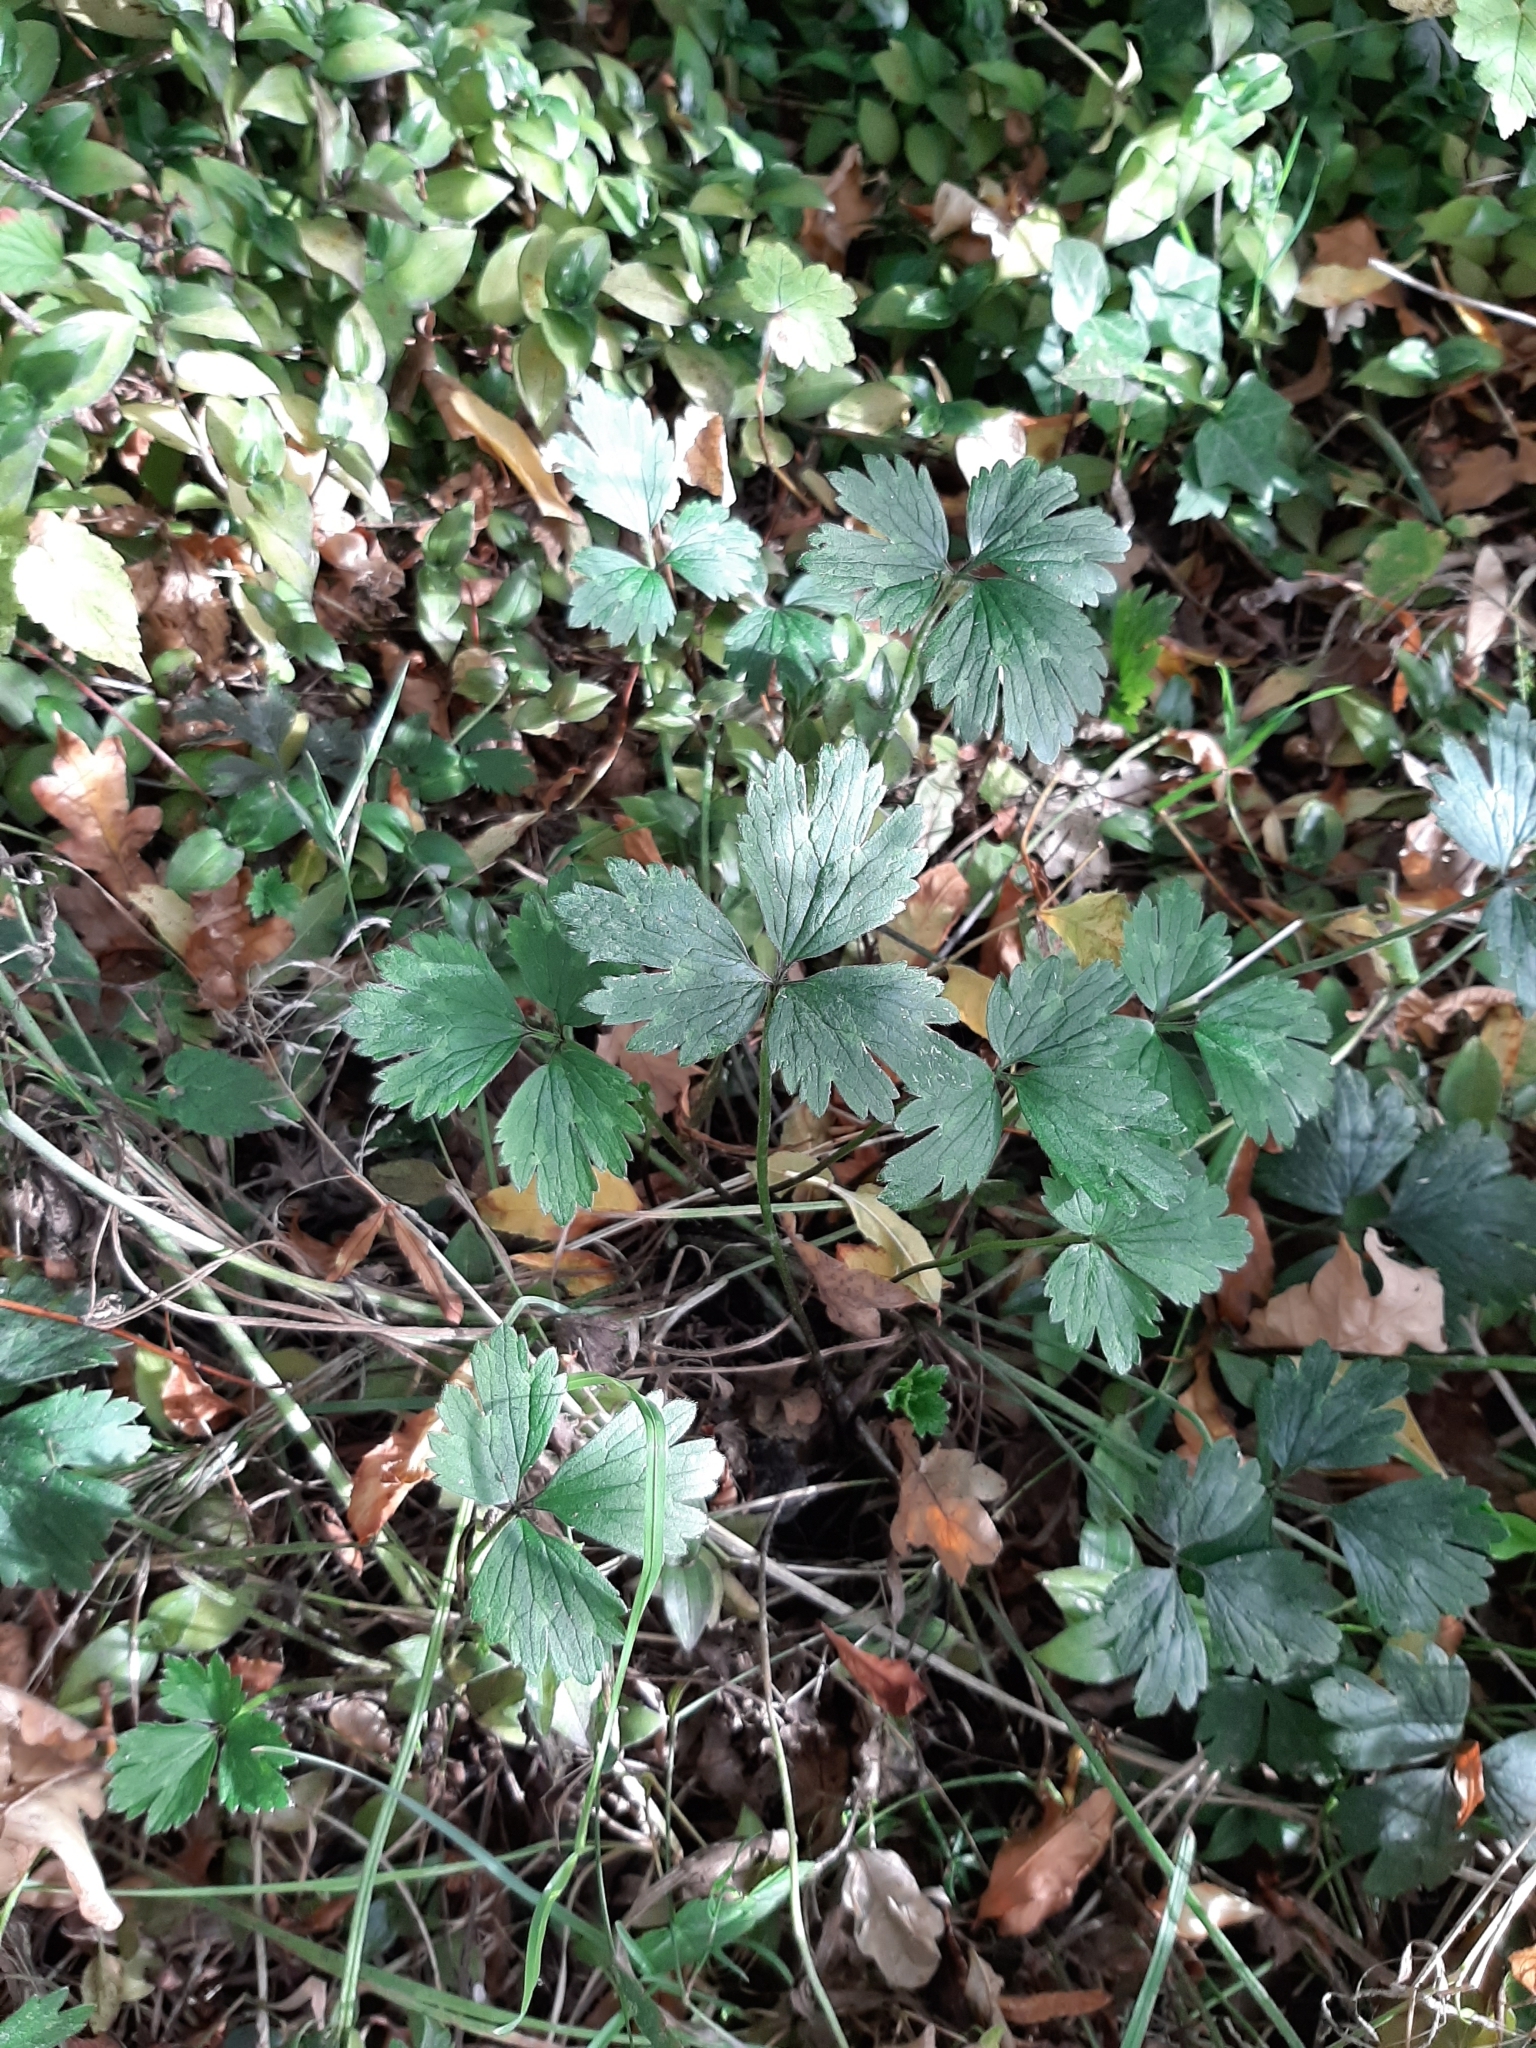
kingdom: Plantae
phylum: Tracheophyta
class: Magnoliopsida
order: Ranunculales
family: Ranunculaceae
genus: Ranunculus
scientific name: Ranunculus repens
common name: Creeping buttercup
